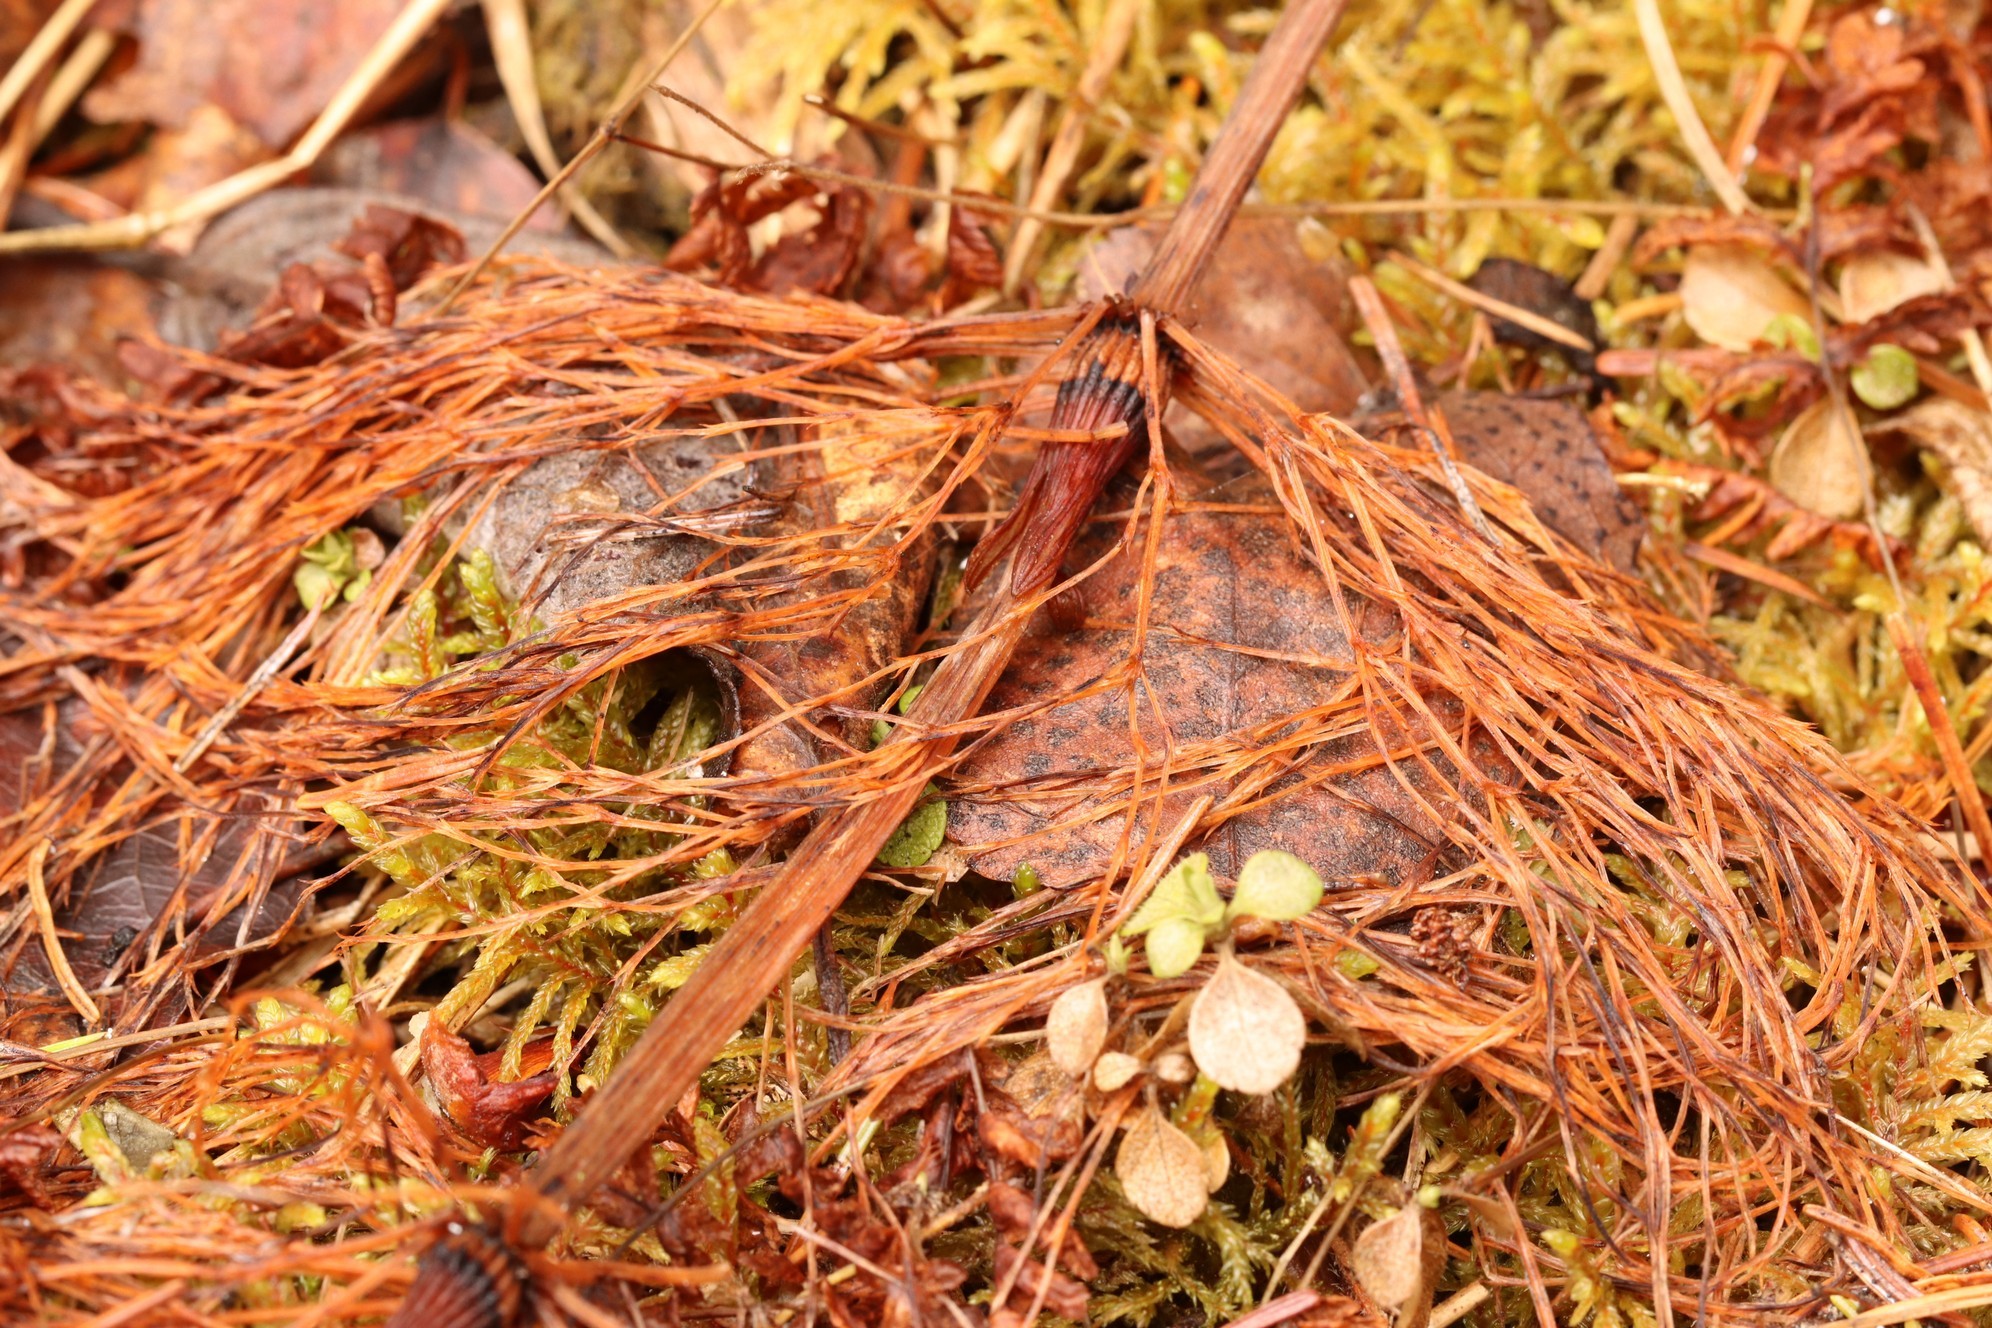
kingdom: Plantae
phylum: Tracheophyta
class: Polypodiopsida
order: Equisetales
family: Equisetaceae
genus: Equisetum
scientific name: Equisetum sylvaticum
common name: Wood horsetail
